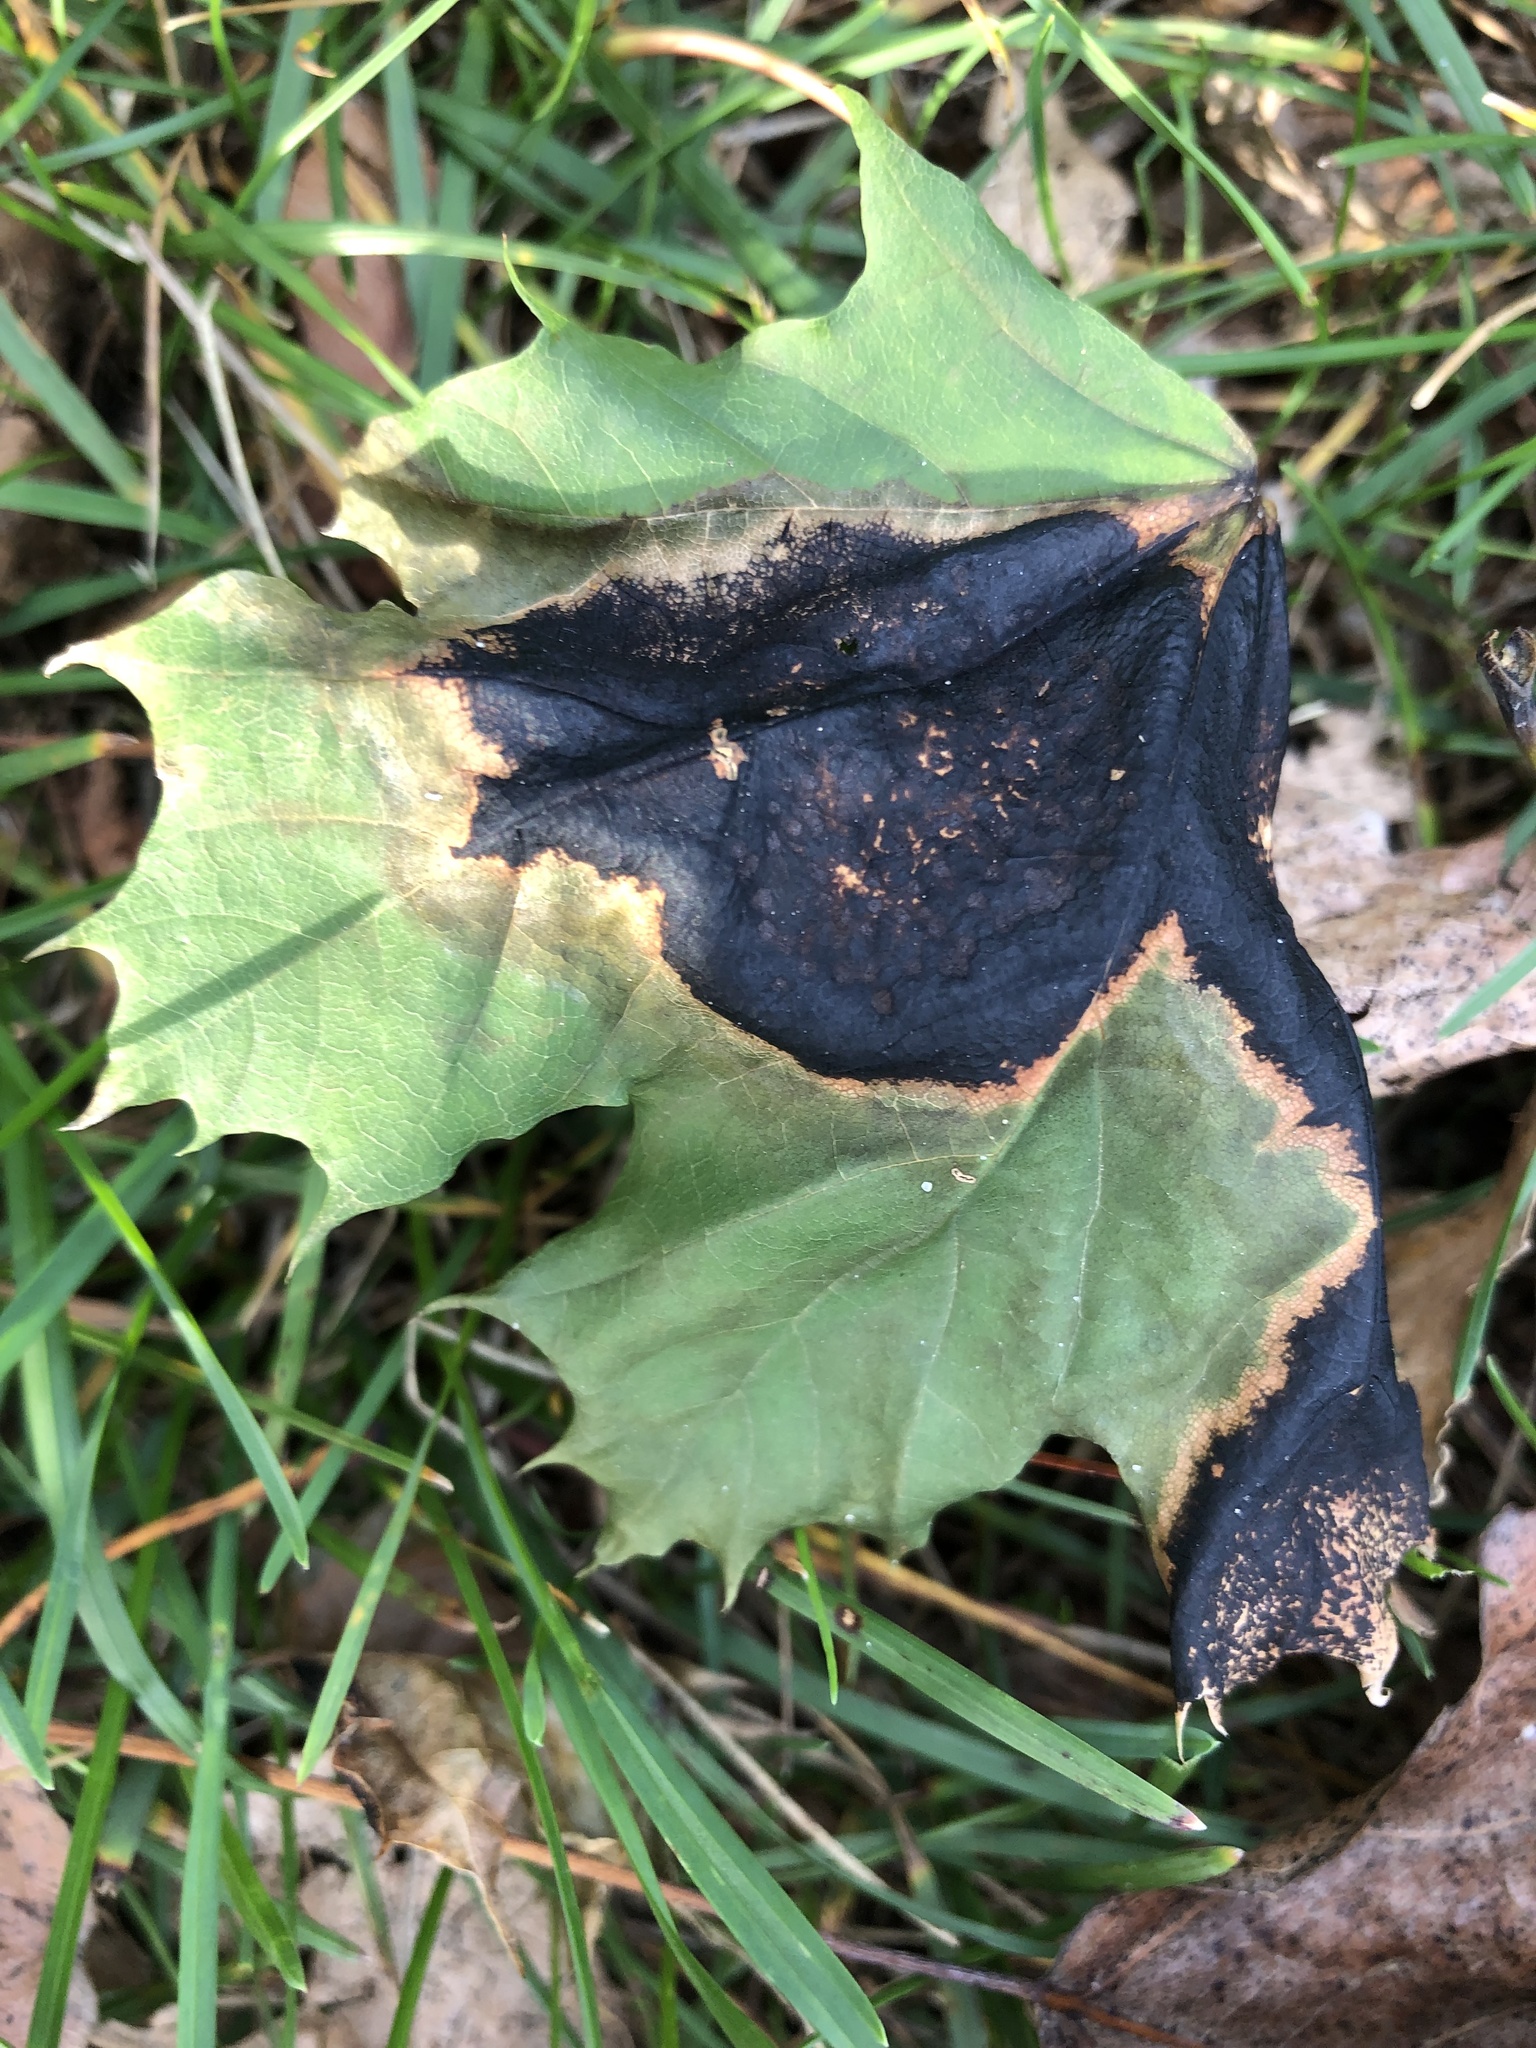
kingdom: Fungi
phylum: Ascomycota
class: Leotiomycetes
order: Rhytismatales
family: Rhytismataceae
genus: Rhytisma
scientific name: Rhytisma acerinum
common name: European tar spot
